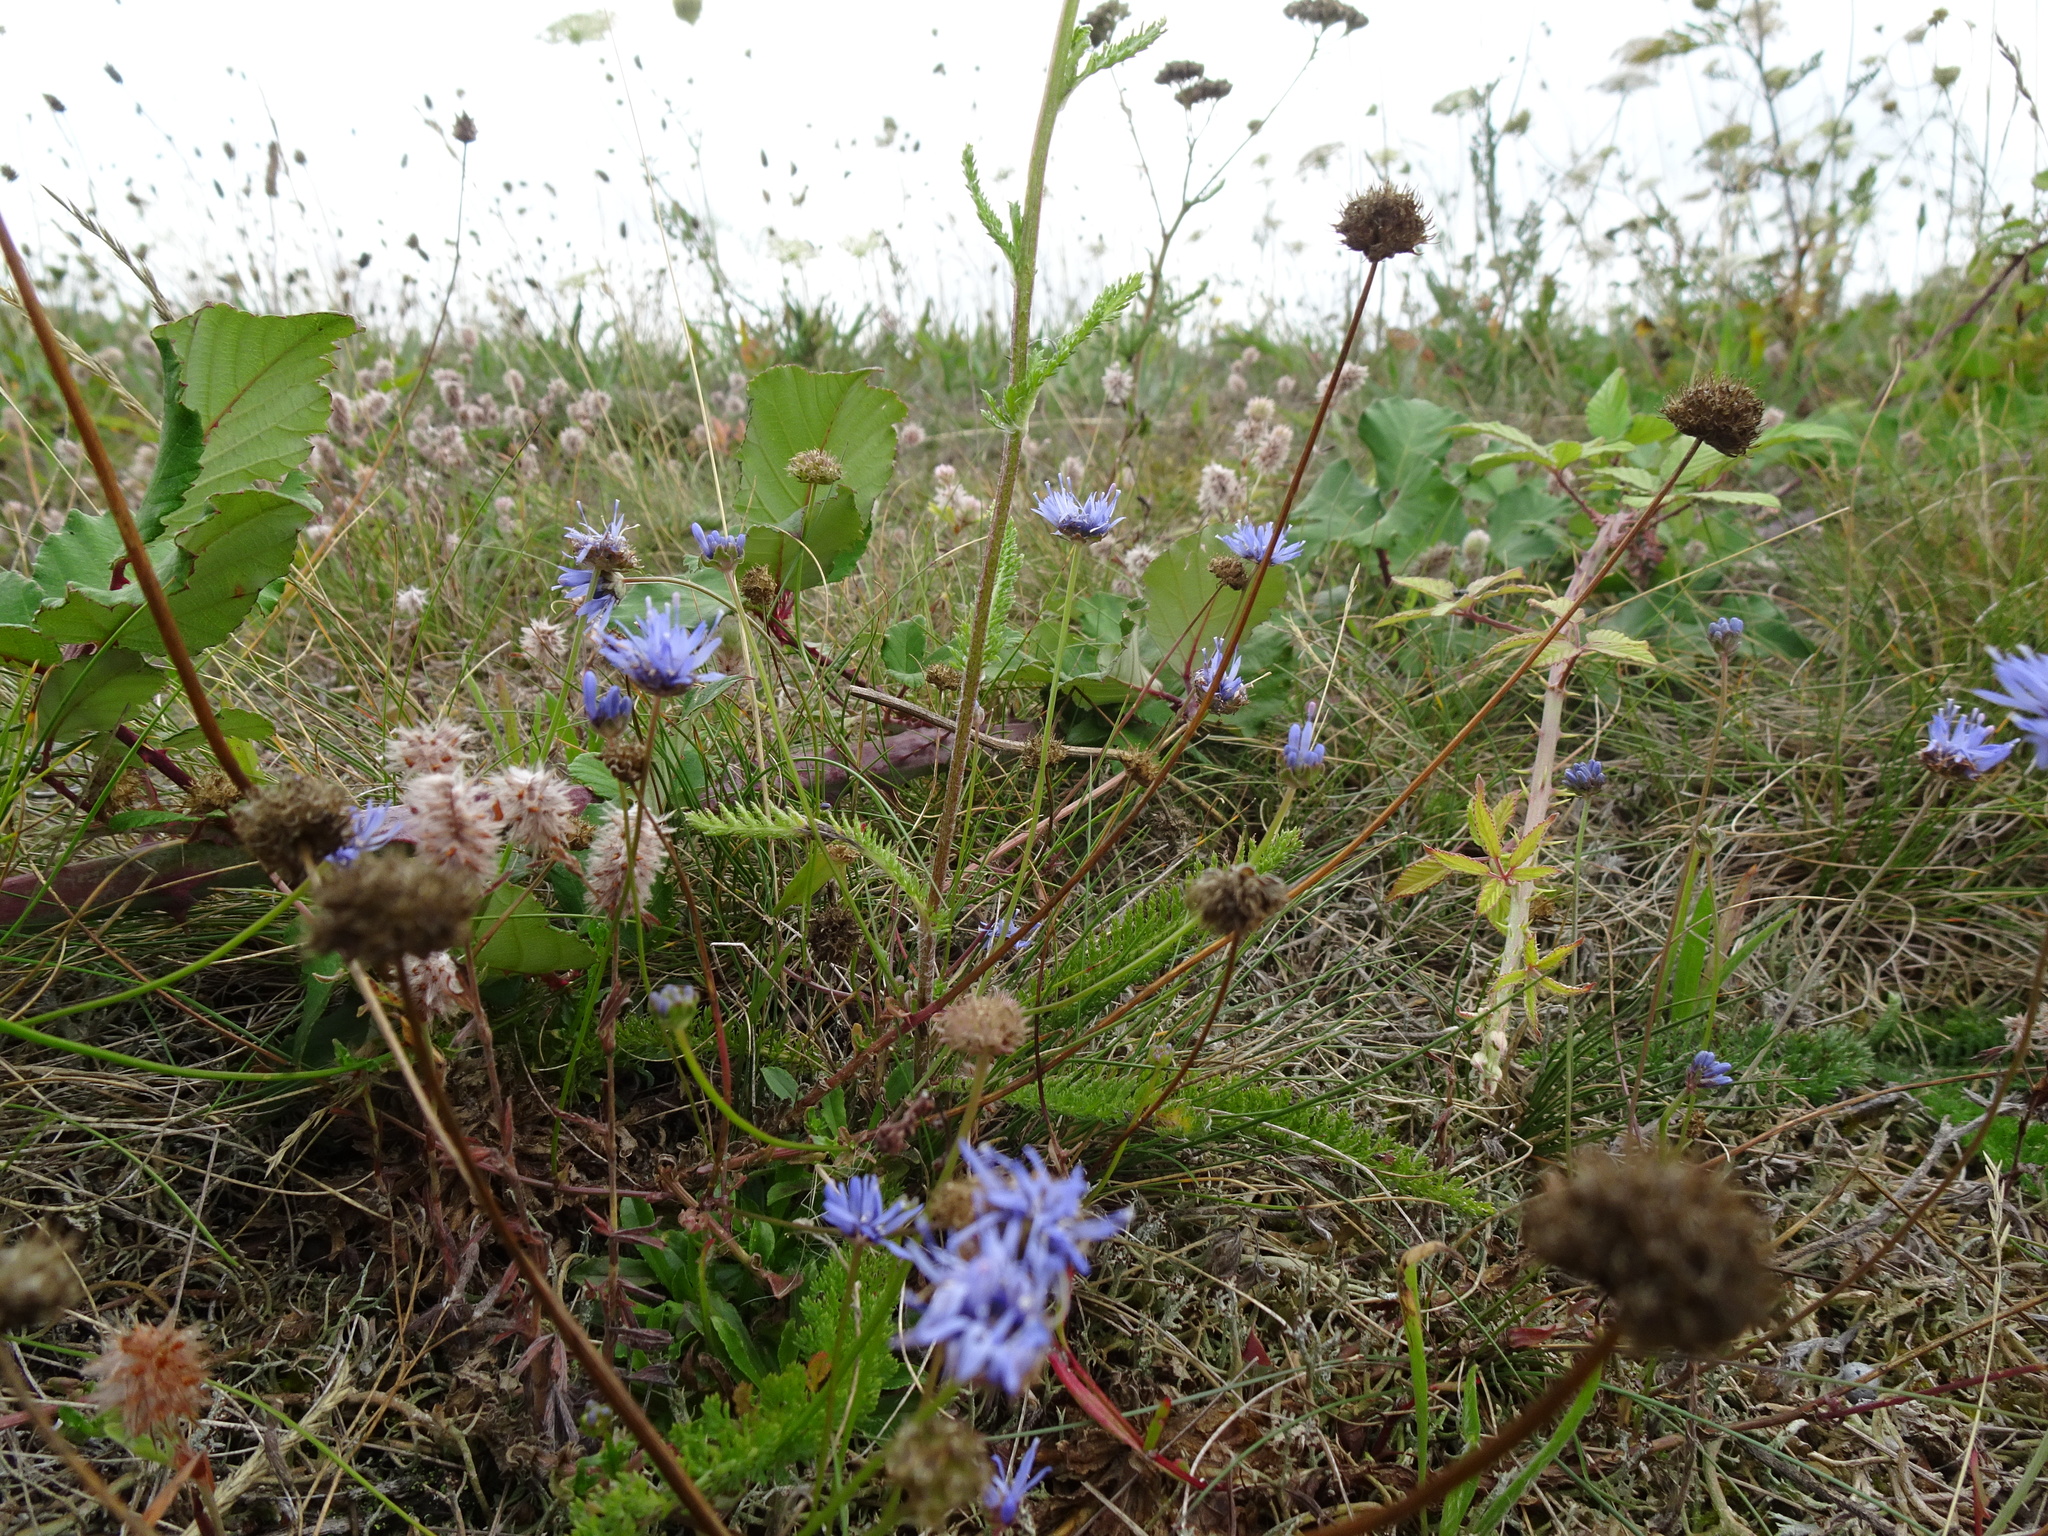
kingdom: Plantae
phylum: Tracheophyta
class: Magnoliopsida
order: Asterales
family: Campanulaceae
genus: Jasione
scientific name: Jasione montana
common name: Sheep's-bit
